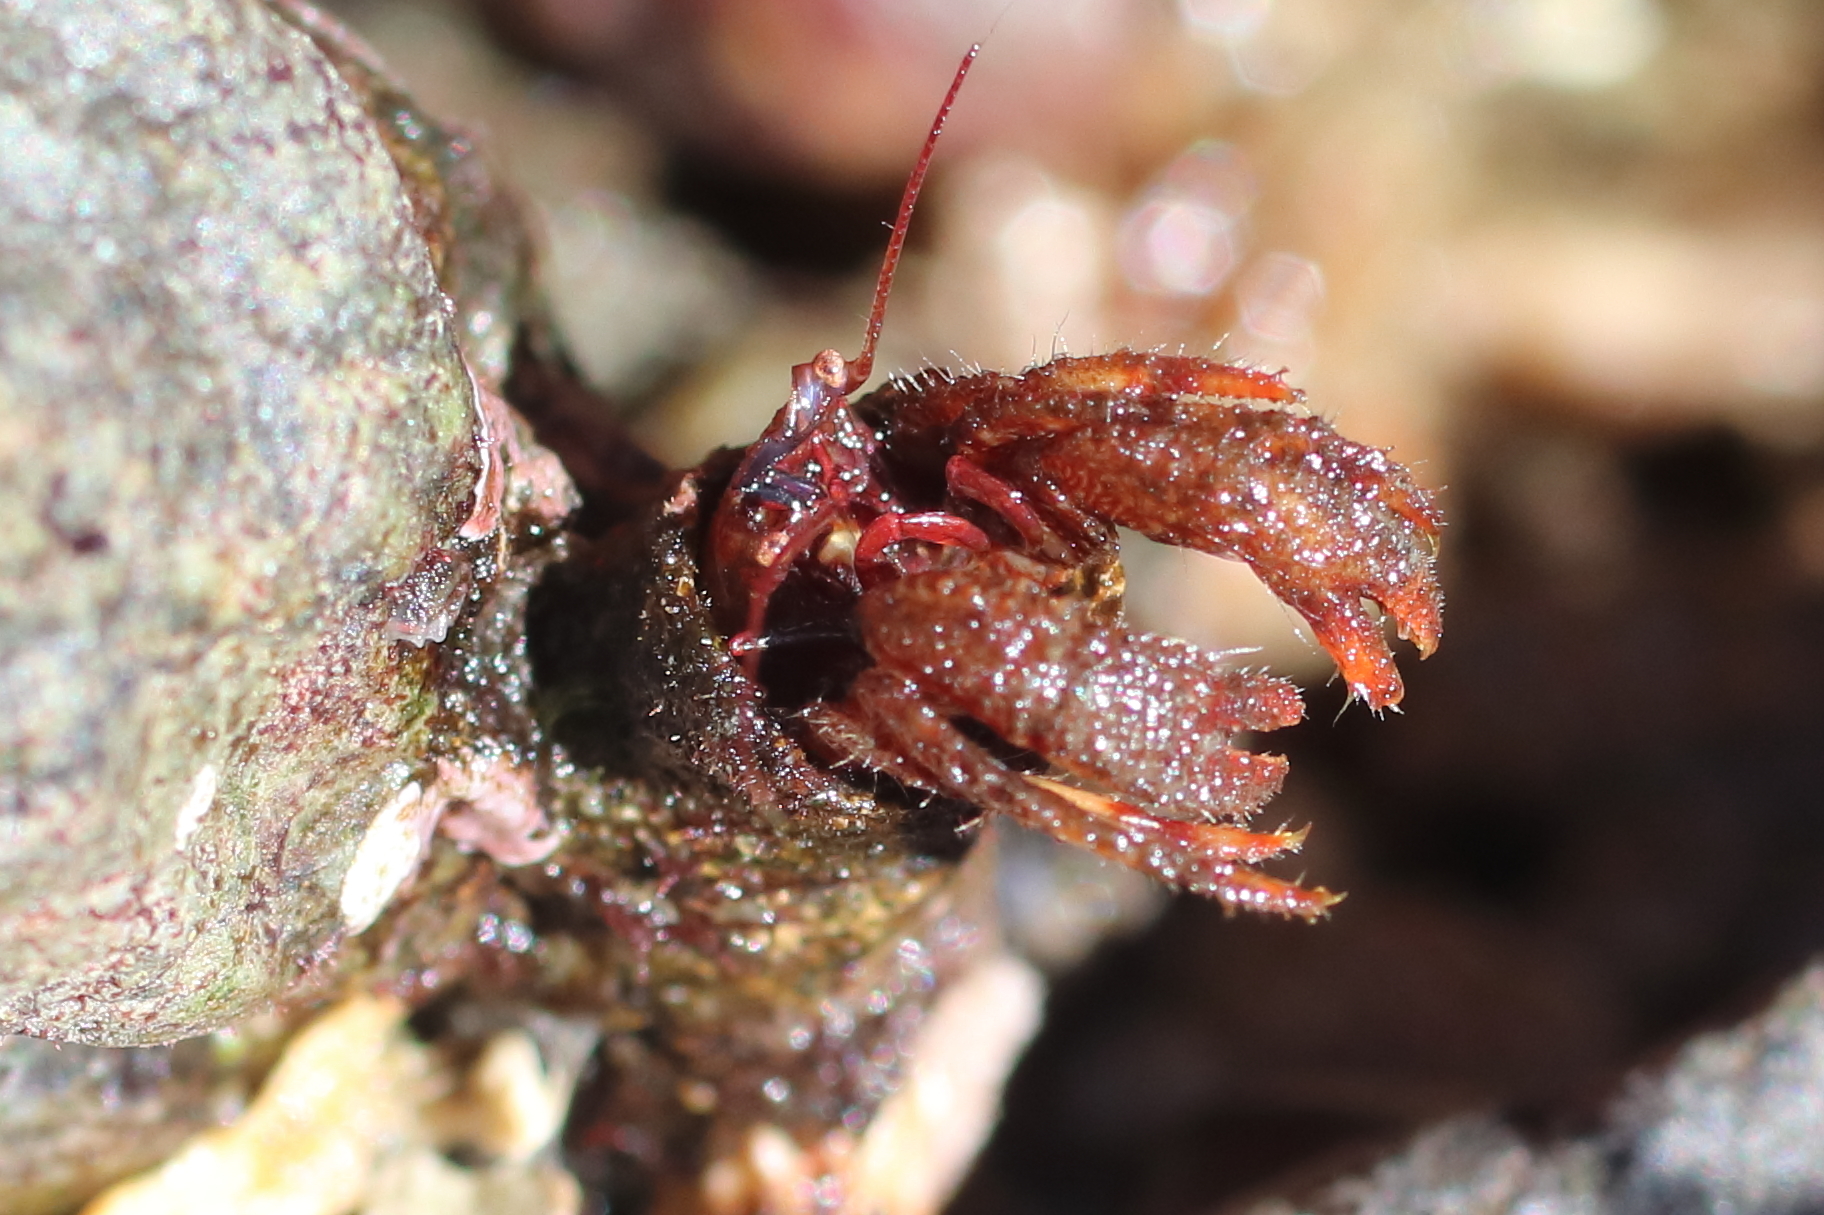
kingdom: Animalia
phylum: Arthropoda
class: Malacostraca
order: Decapoda
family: Paguridae
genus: Discorsopagurus
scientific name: Discorsopagurus schmitti
